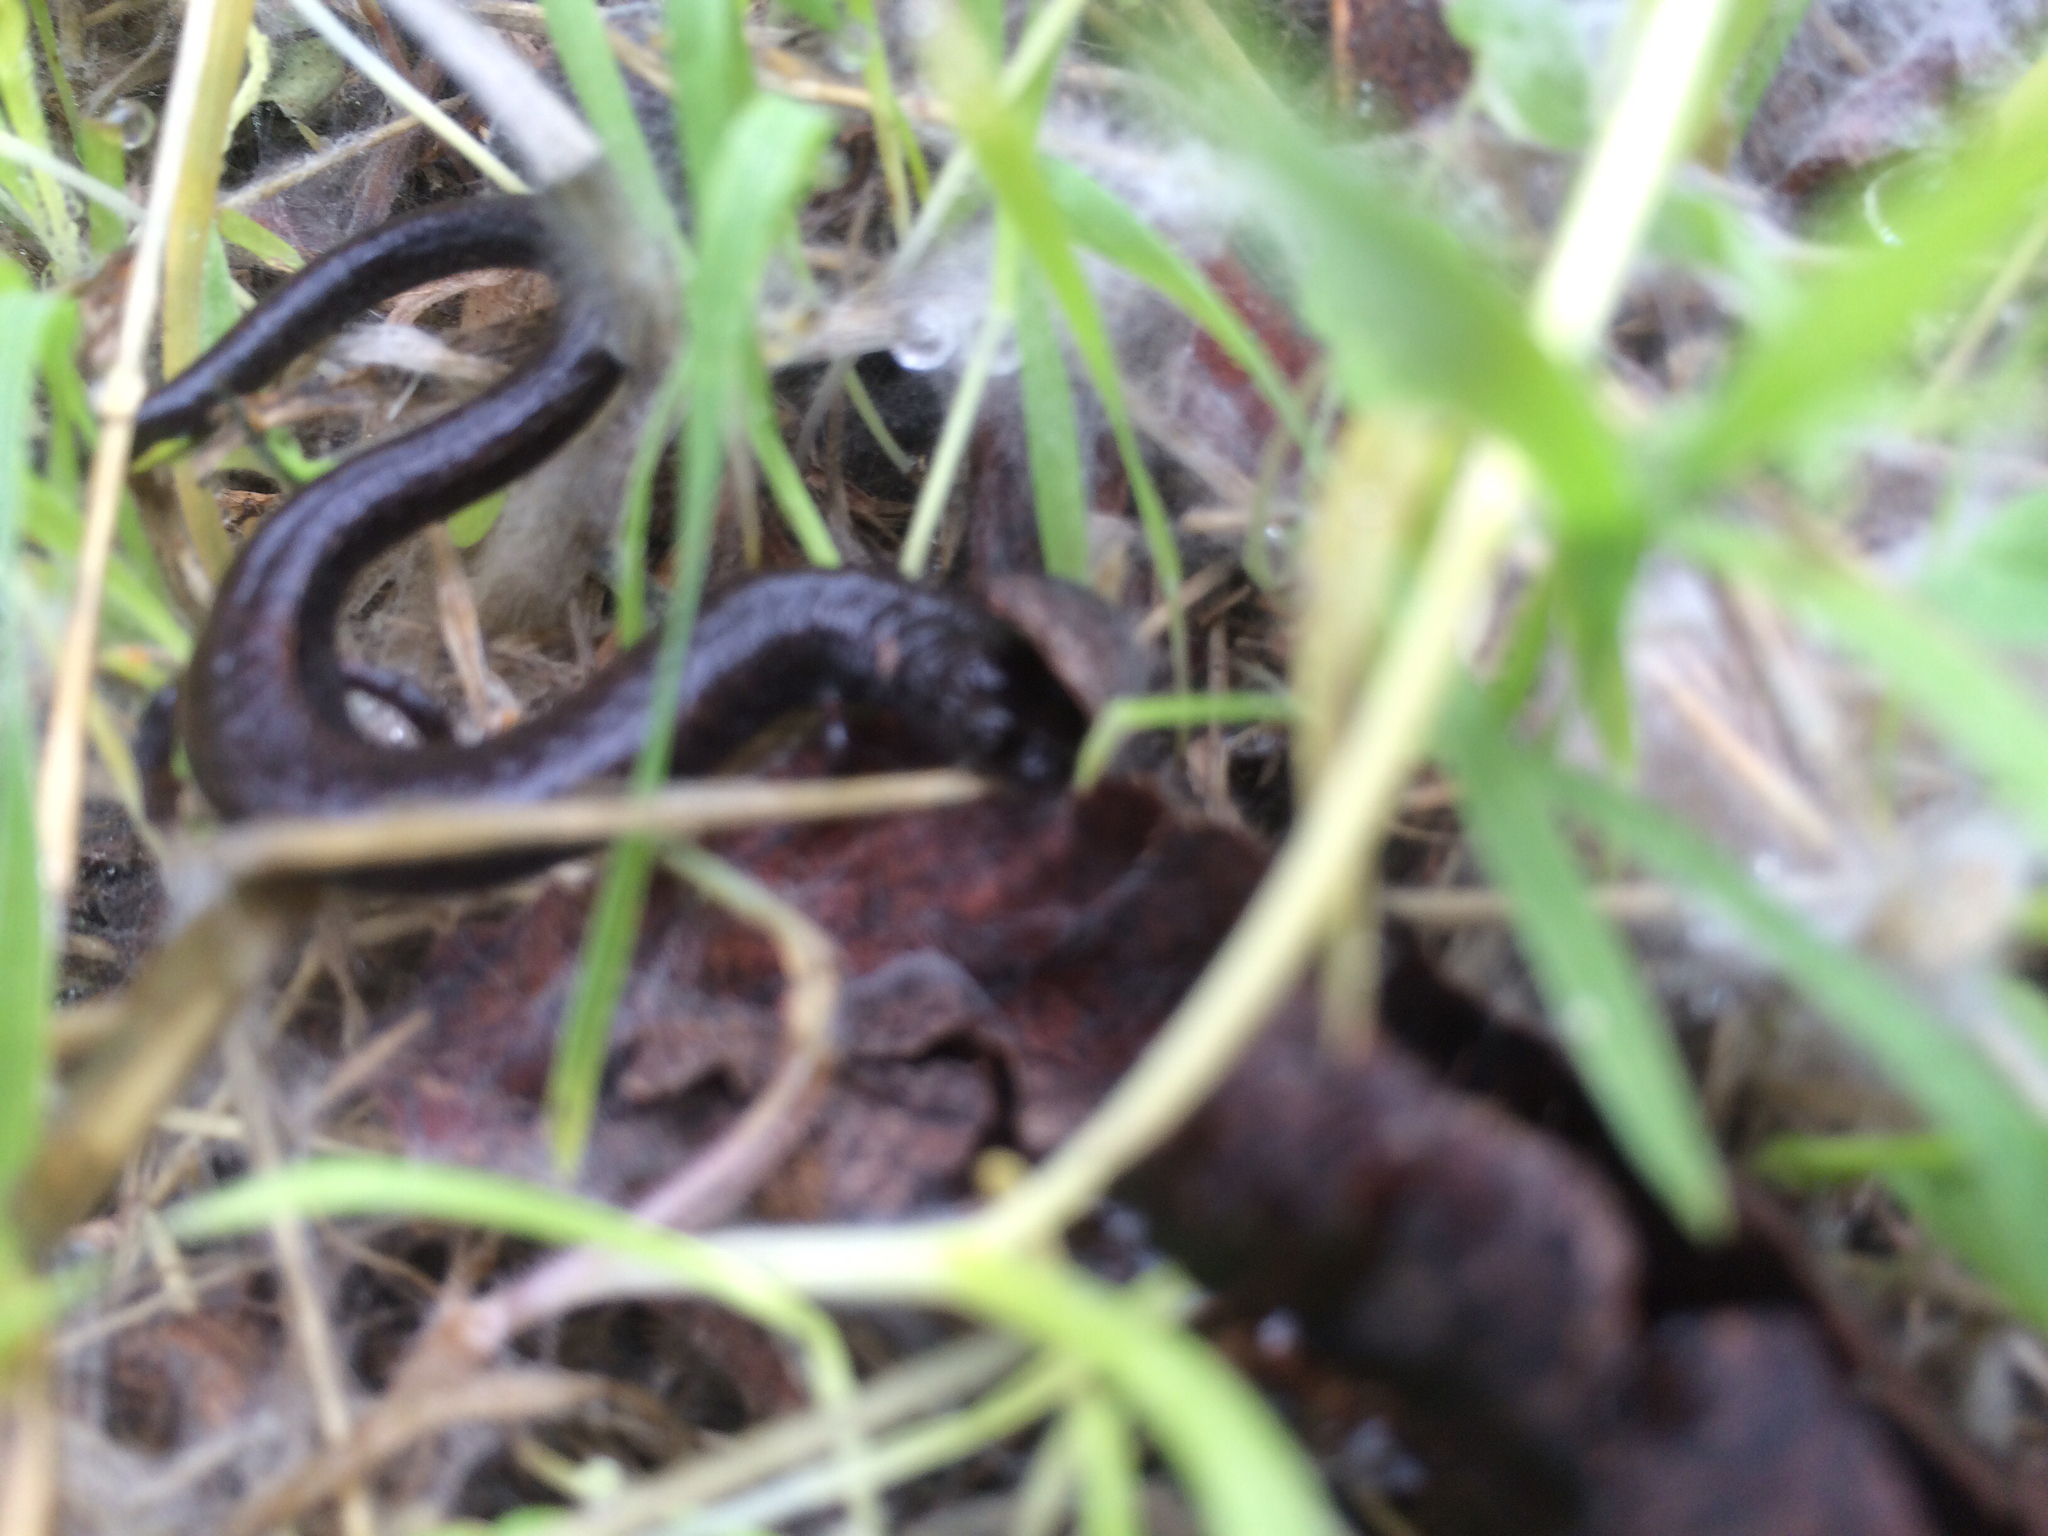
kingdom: Animalia
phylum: Chordata
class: Amphibia
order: Caudata
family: Plethodontidae
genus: Batrachoseps
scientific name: Batrachoseps attenuatus
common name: California slender salamander
